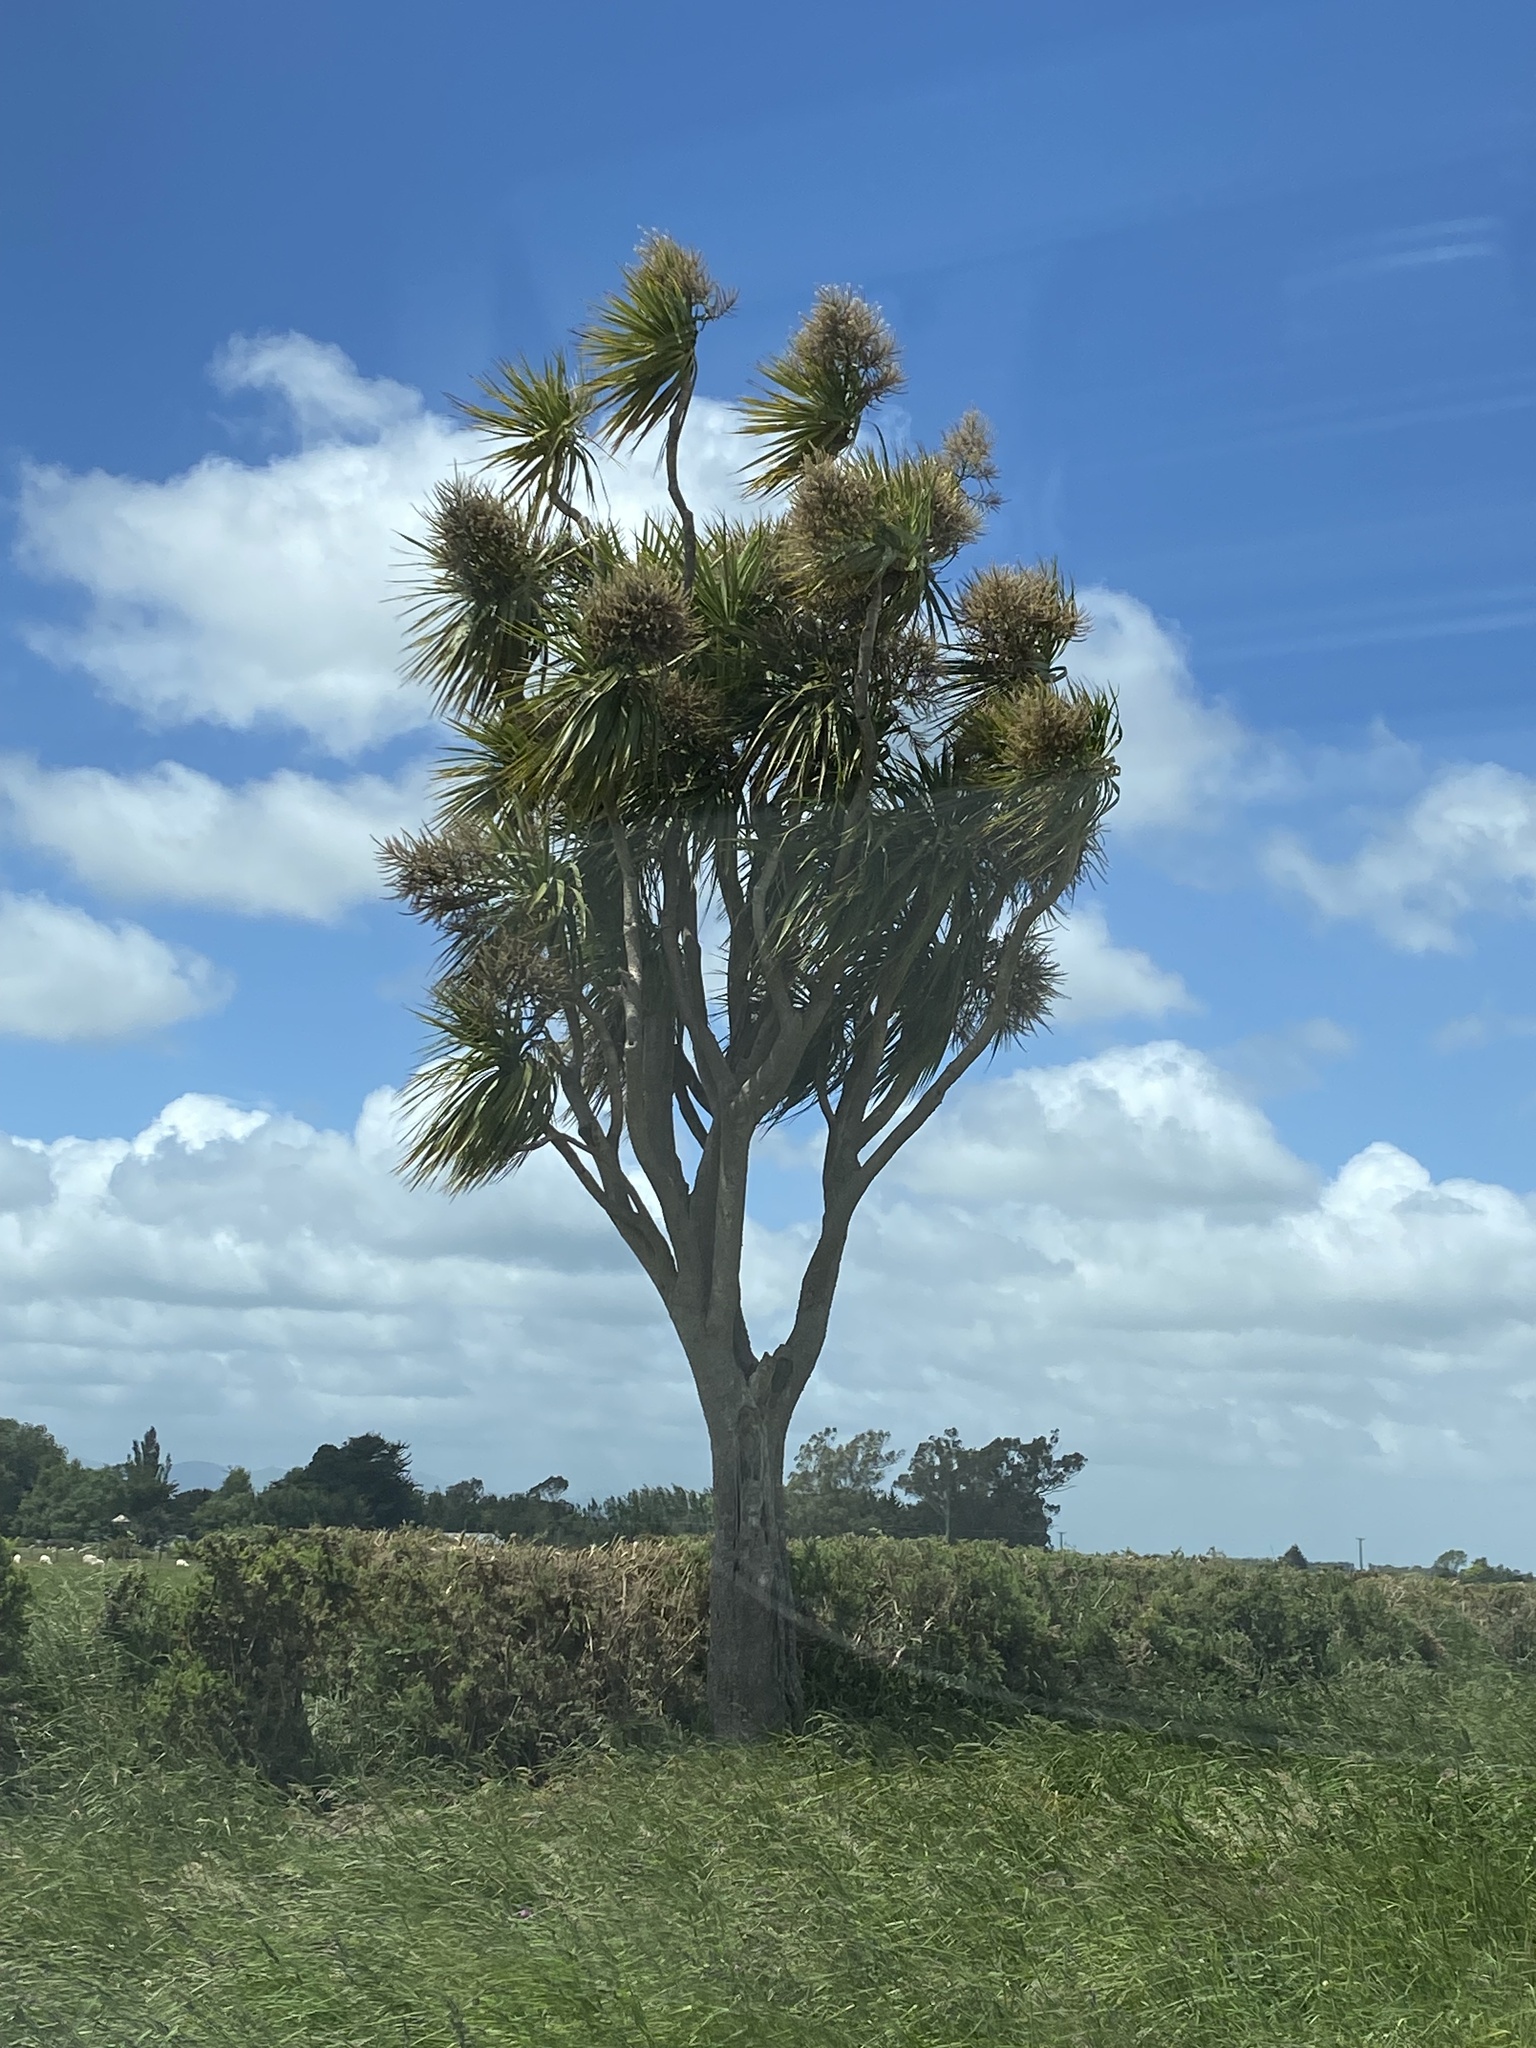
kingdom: Plantae
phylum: Tracheophyta
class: Liliopsida
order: Asparagales
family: Asparagaceae
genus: Cordyline
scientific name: Cordyline australis
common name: Cabbage-palm
